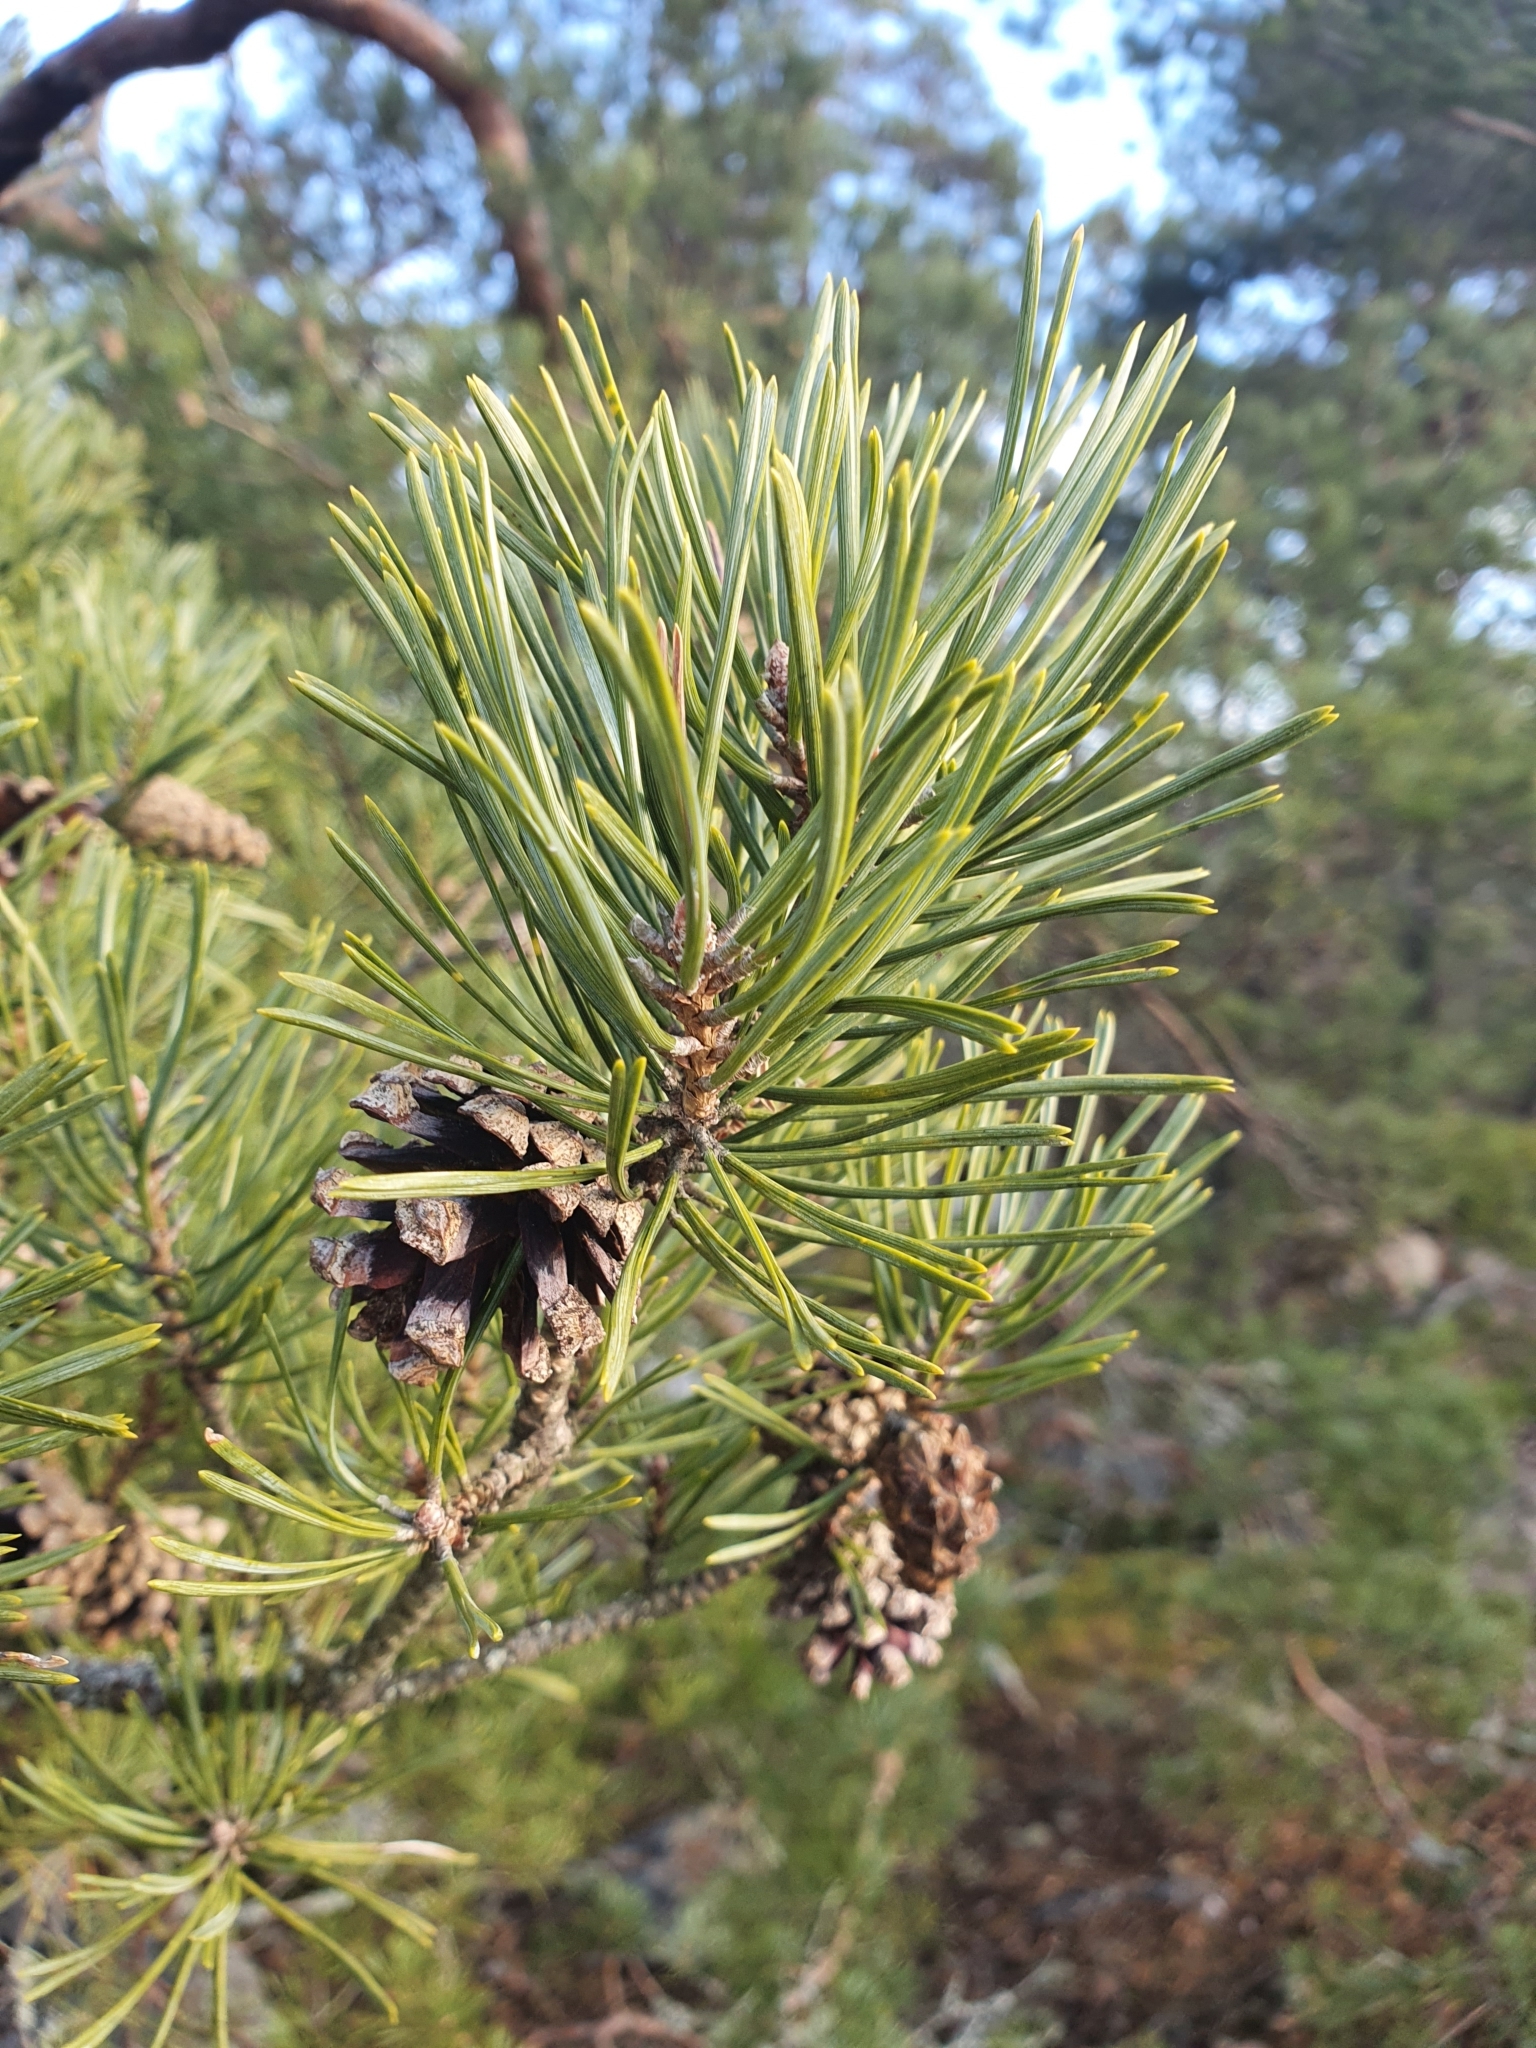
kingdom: Plantae
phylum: Tracheophyta
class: Pinopsida
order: Pinales
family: Pinaceae
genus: Pinus
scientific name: Pinus sylvestris
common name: Scots pine
